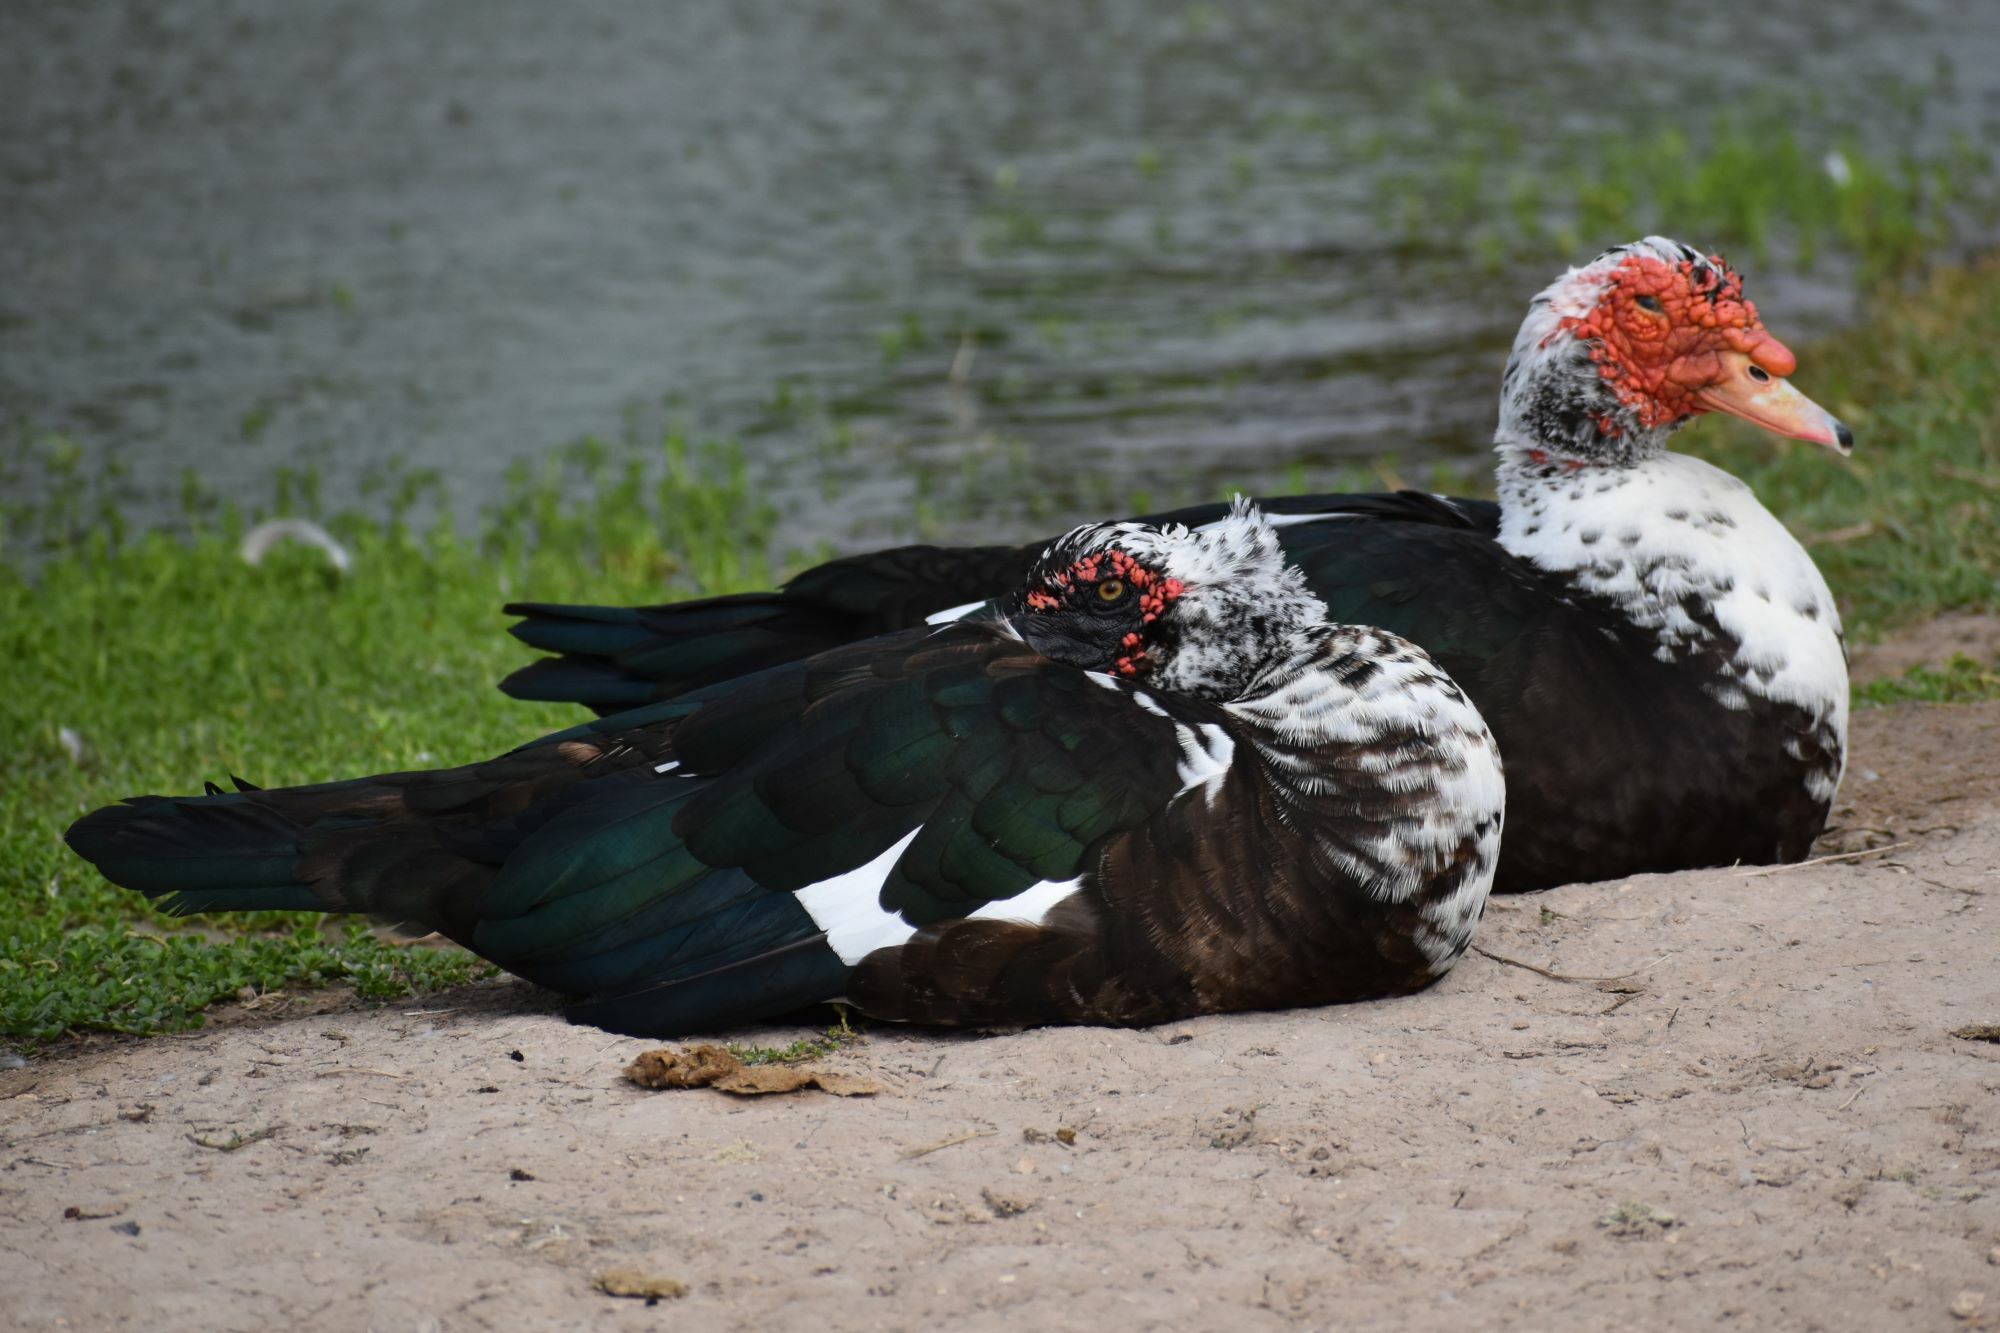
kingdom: Animalia
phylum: Chordata
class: Aves
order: Anseriformes
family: Anatidae
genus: Cairina
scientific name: Cairina moschata
